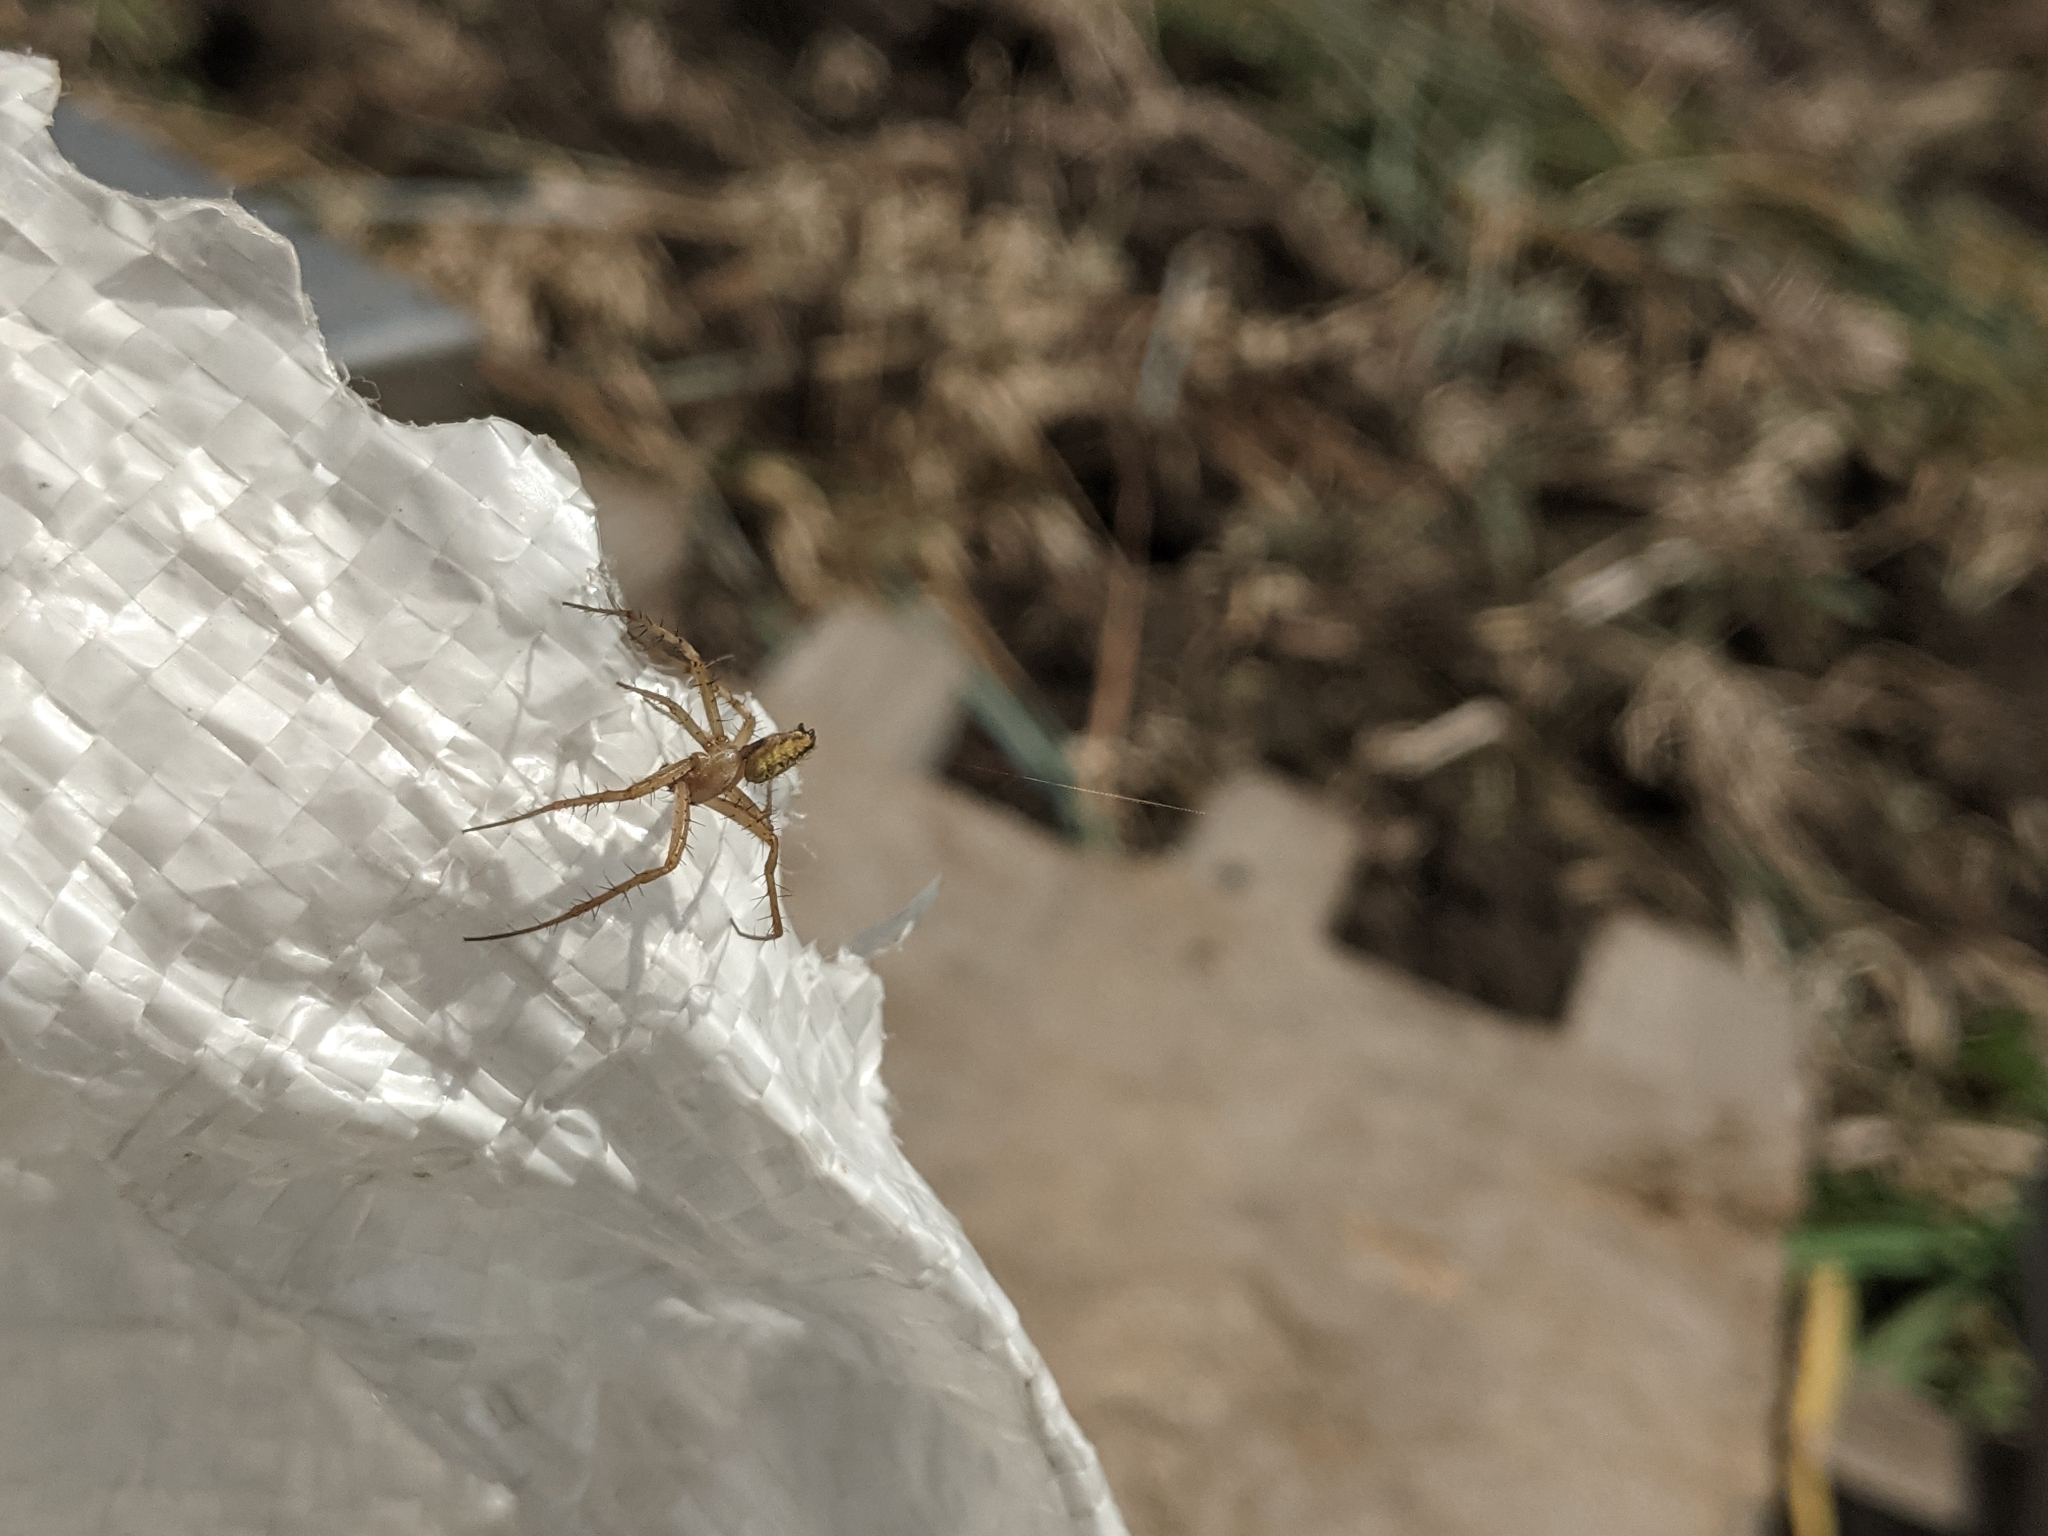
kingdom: Animalia
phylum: Arthropoda
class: Arachnida
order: Araneae
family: Araneidae
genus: Neoscona
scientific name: Neoscona adianta
